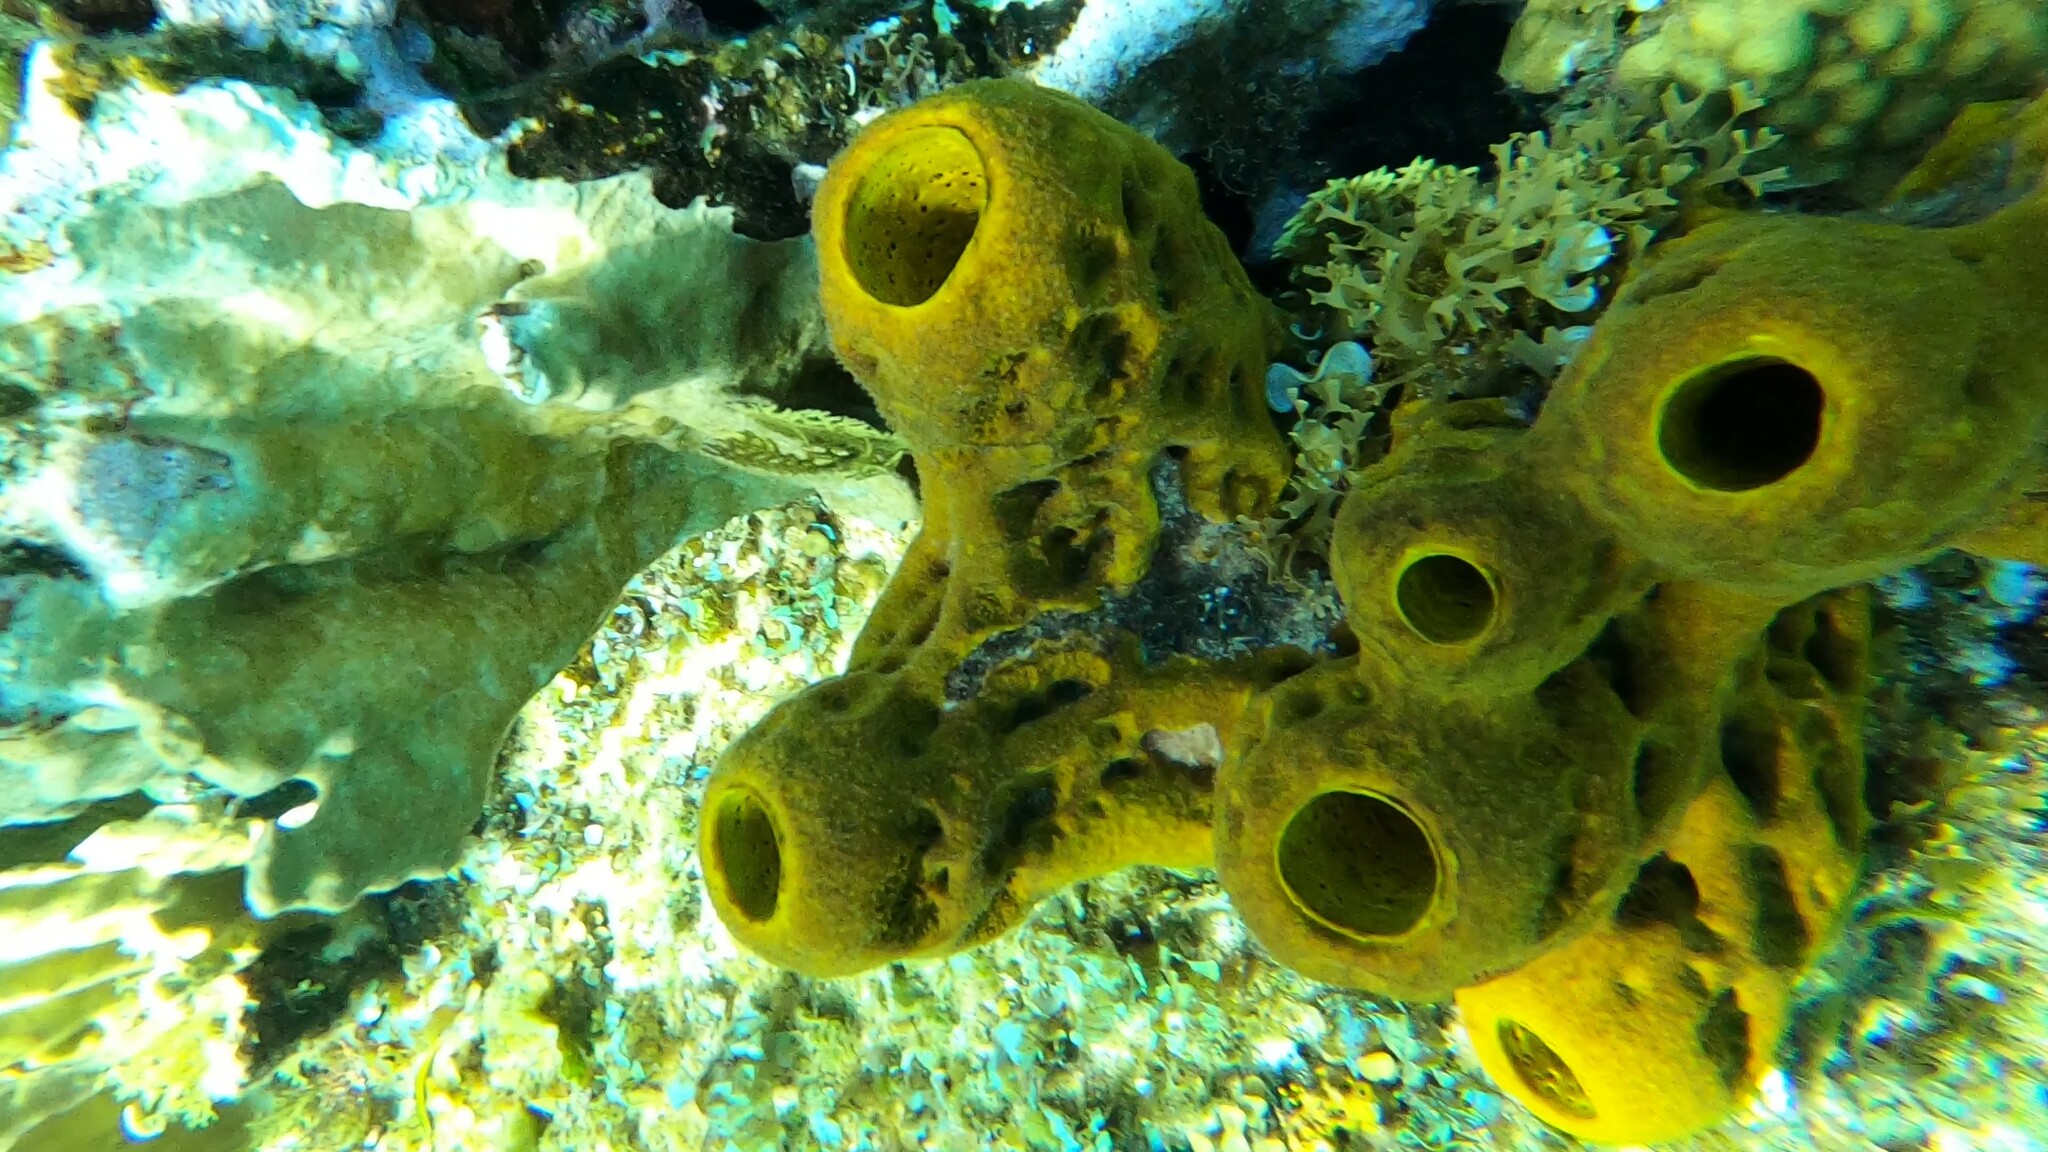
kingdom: Animalia
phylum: Porifera
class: Demospongiae
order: Verongiida
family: Aplysinidae
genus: Aplysina
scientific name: Aplysina fistularis
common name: Candle sponge
